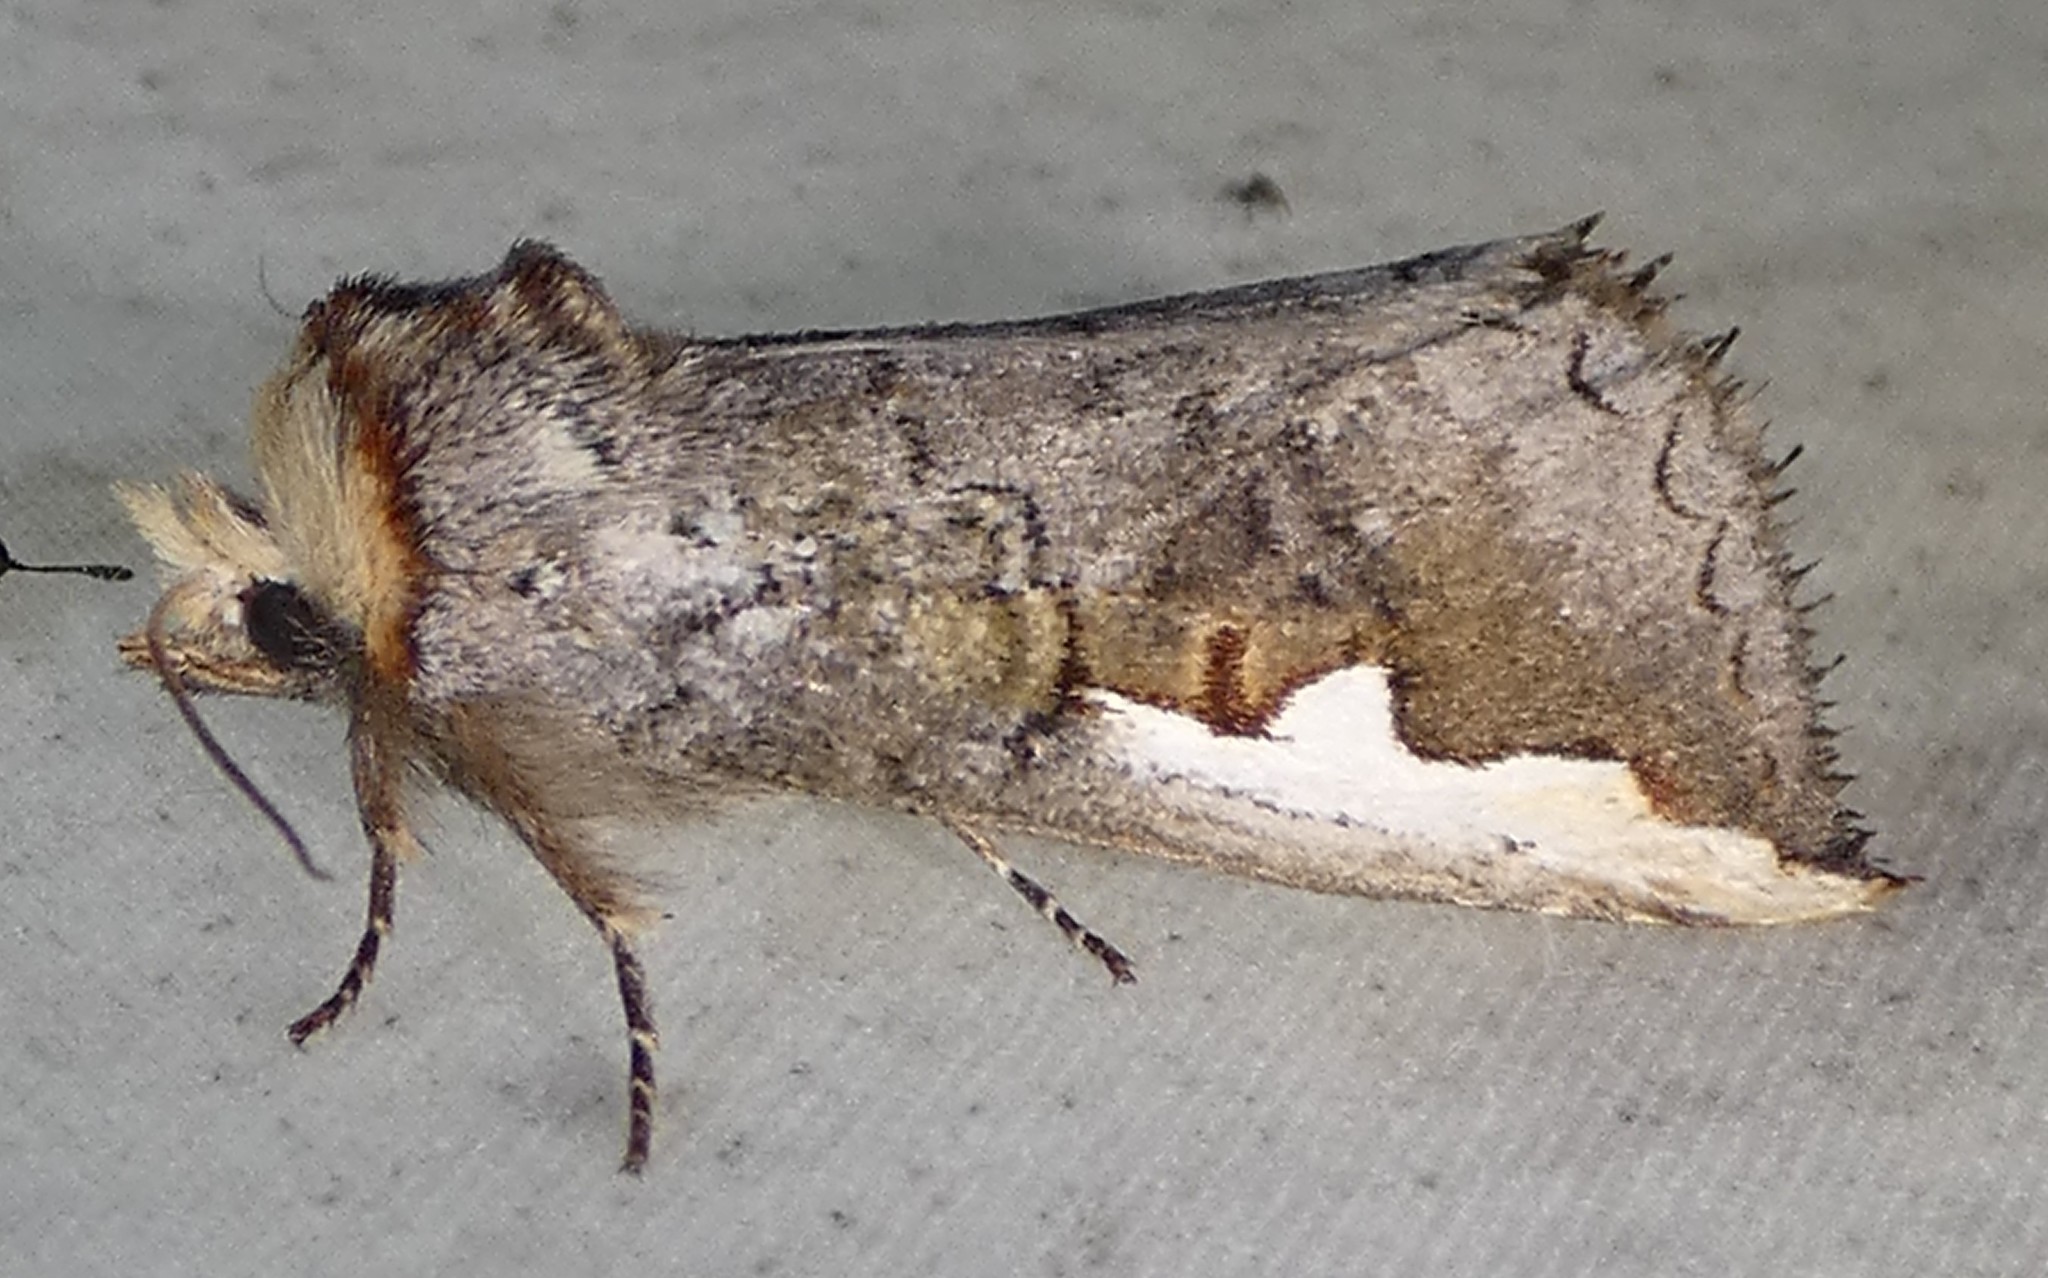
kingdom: Animalia
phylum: Arthropoda
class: Insecta
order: Lepidoptera
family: Notodontidae
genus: Symmerista
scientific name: Symmerista albifrons
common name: White-headed prominent
